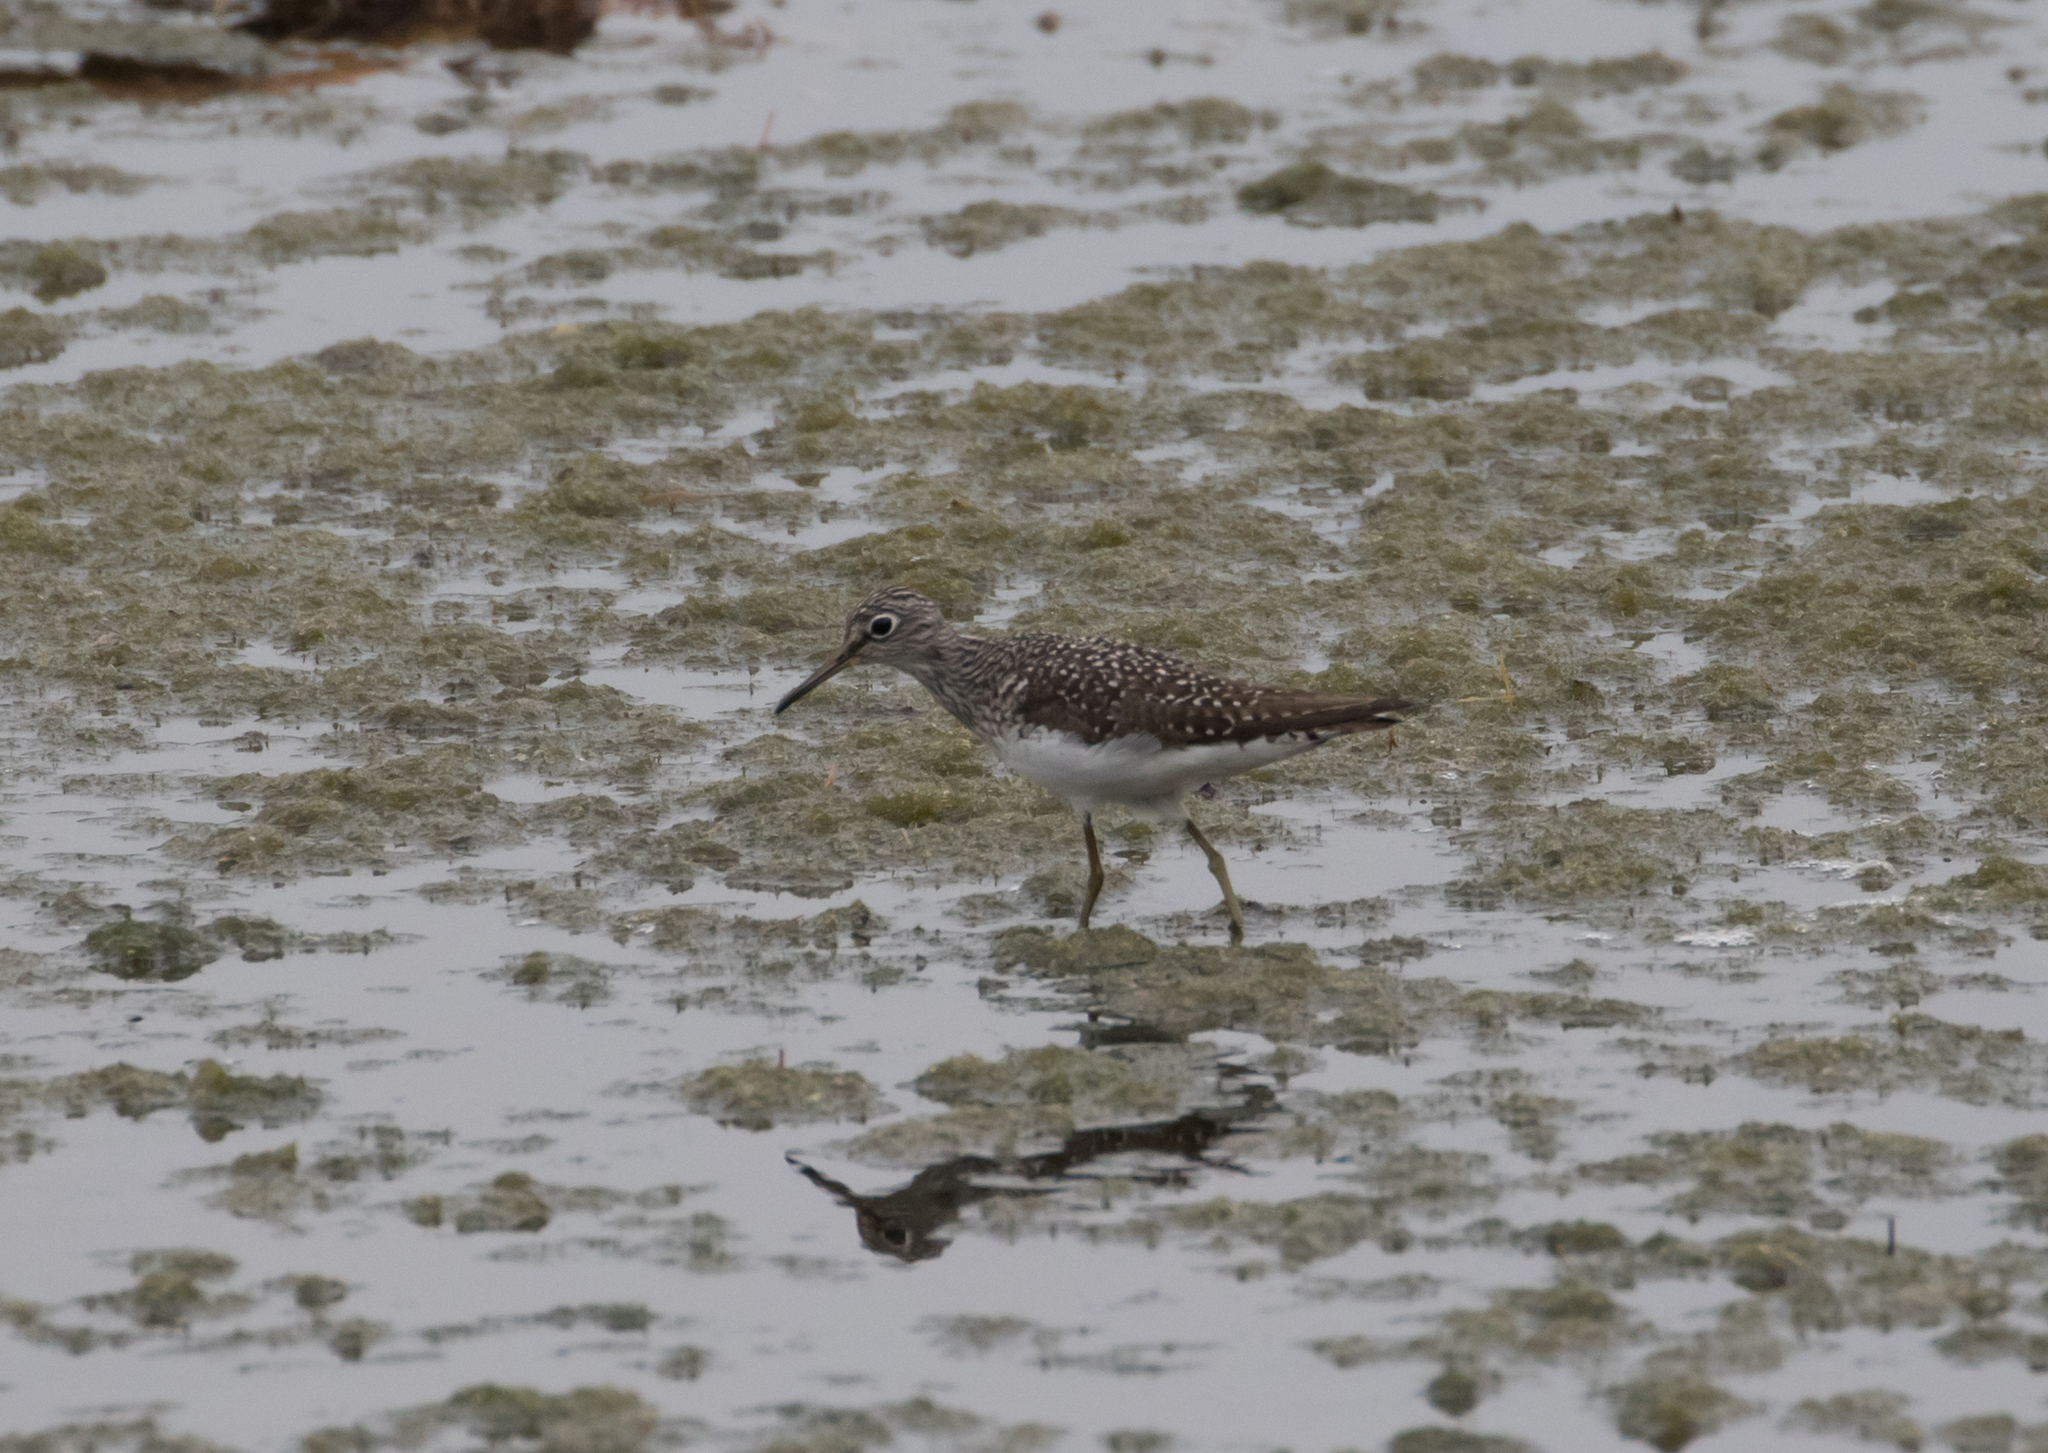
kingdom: Animalia
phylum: Chordata
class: Aves
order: Charadriiformes
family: Scolopacidae
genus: Tringa
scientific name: Tringa solitaria
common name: Solitary sandpiper
